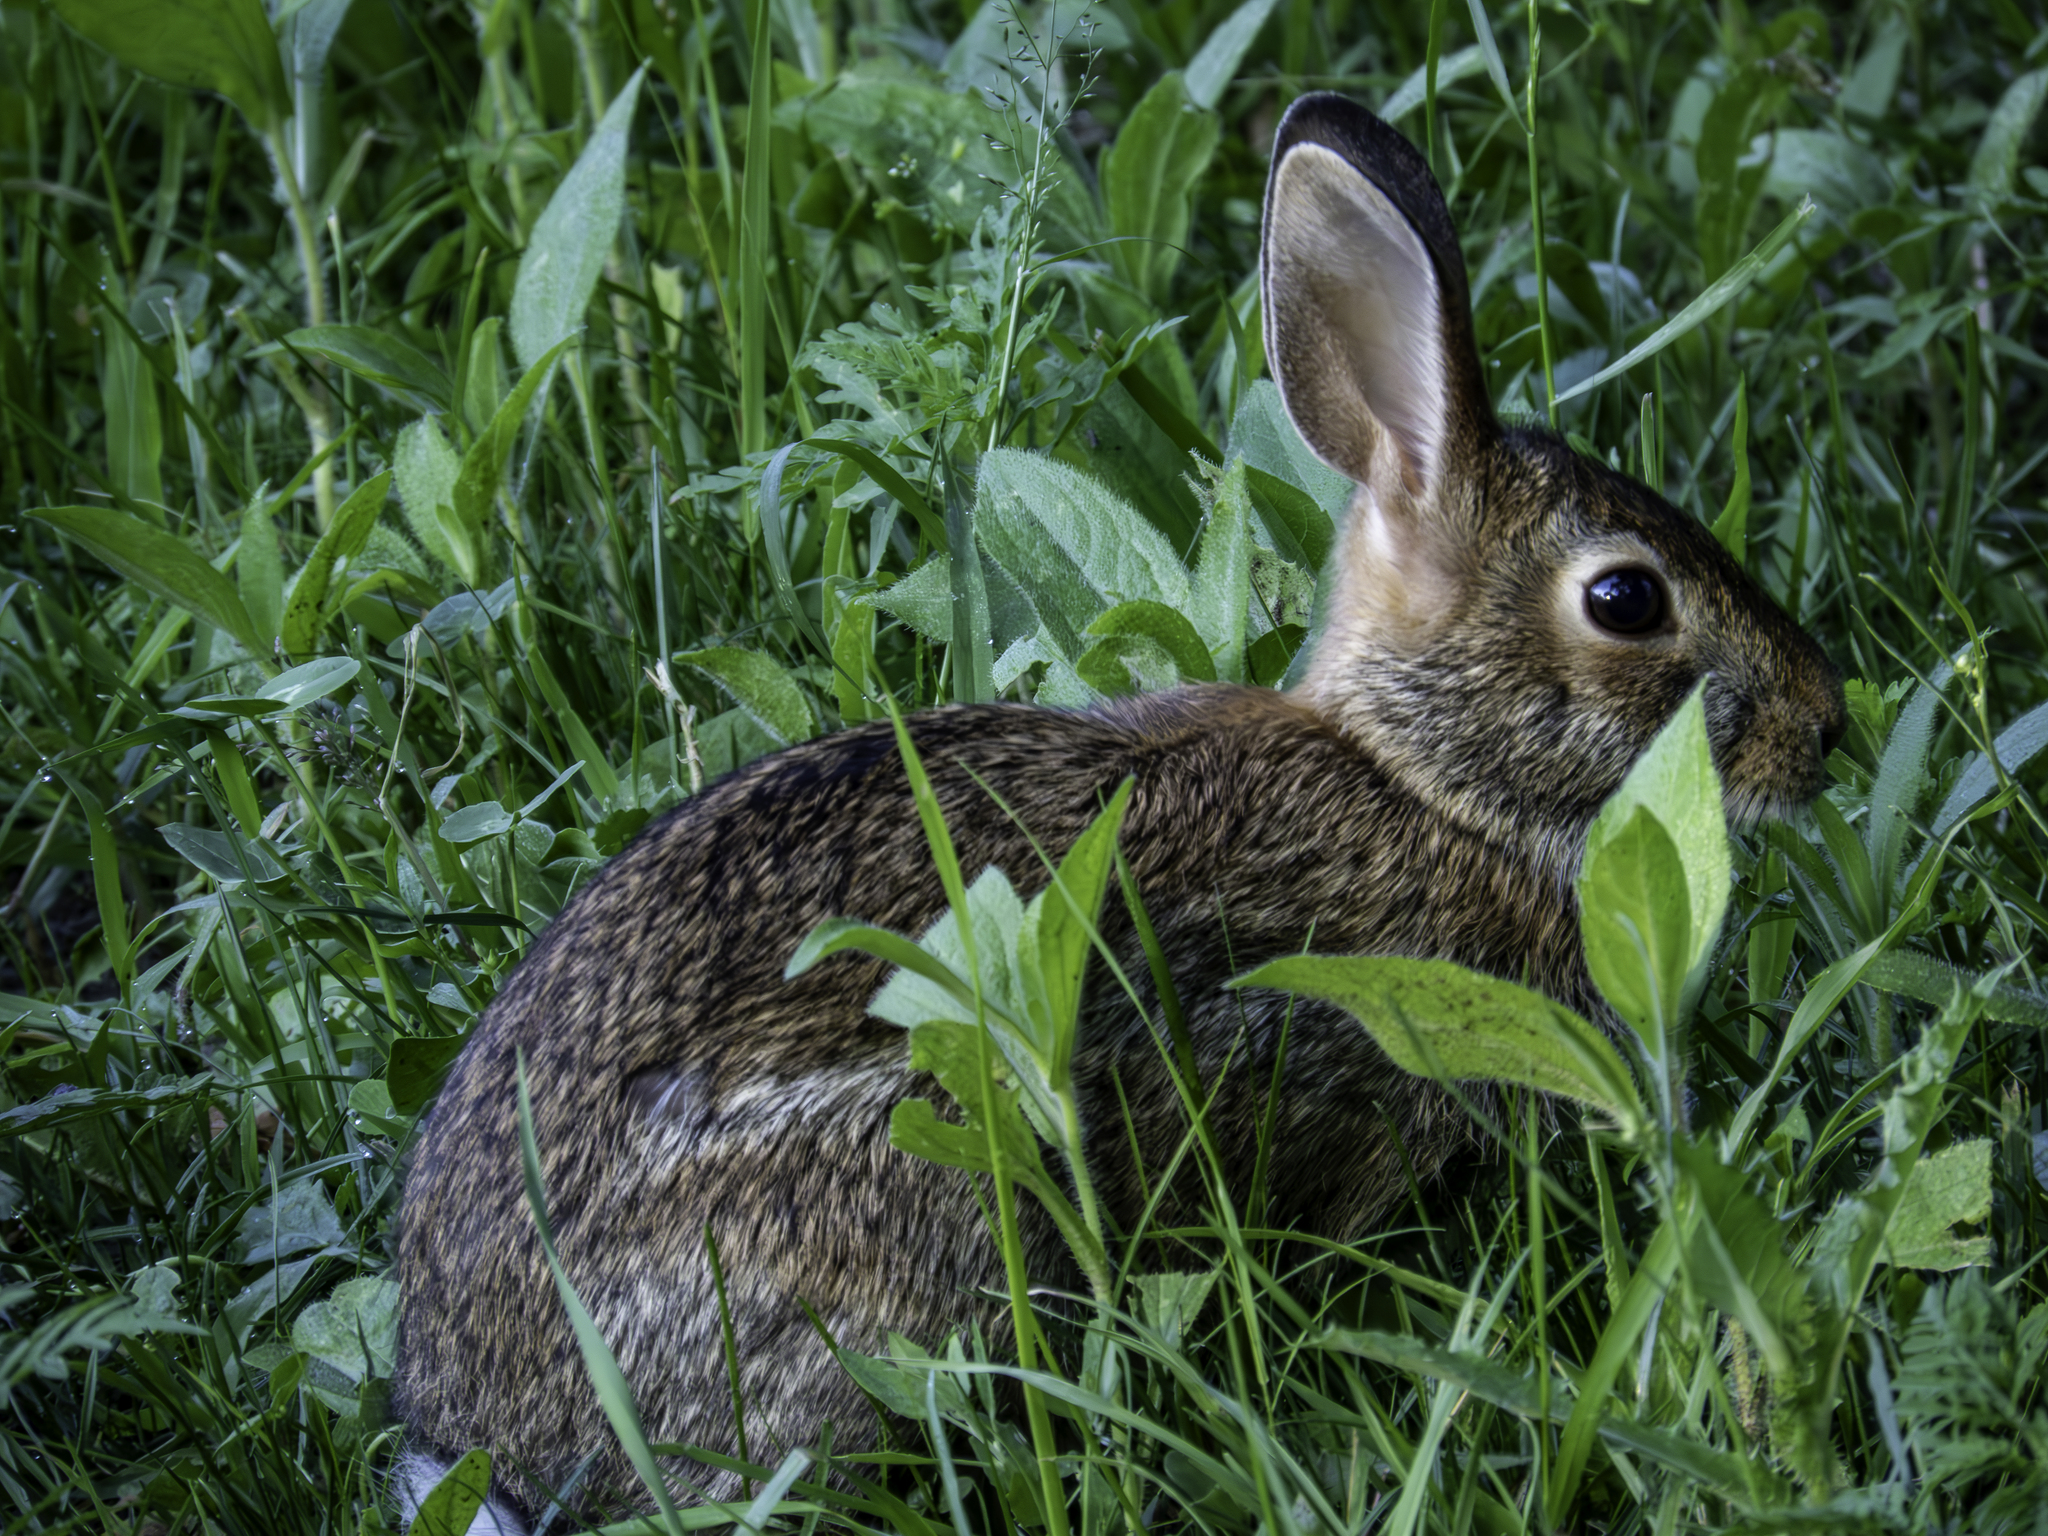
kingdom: Animalia
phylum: Chordata
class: Mammalia
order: Lagomorpha
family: Leporidae
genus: Sylvilagus
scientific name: Sylvilagus floridanus
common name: Eastern cottontail
